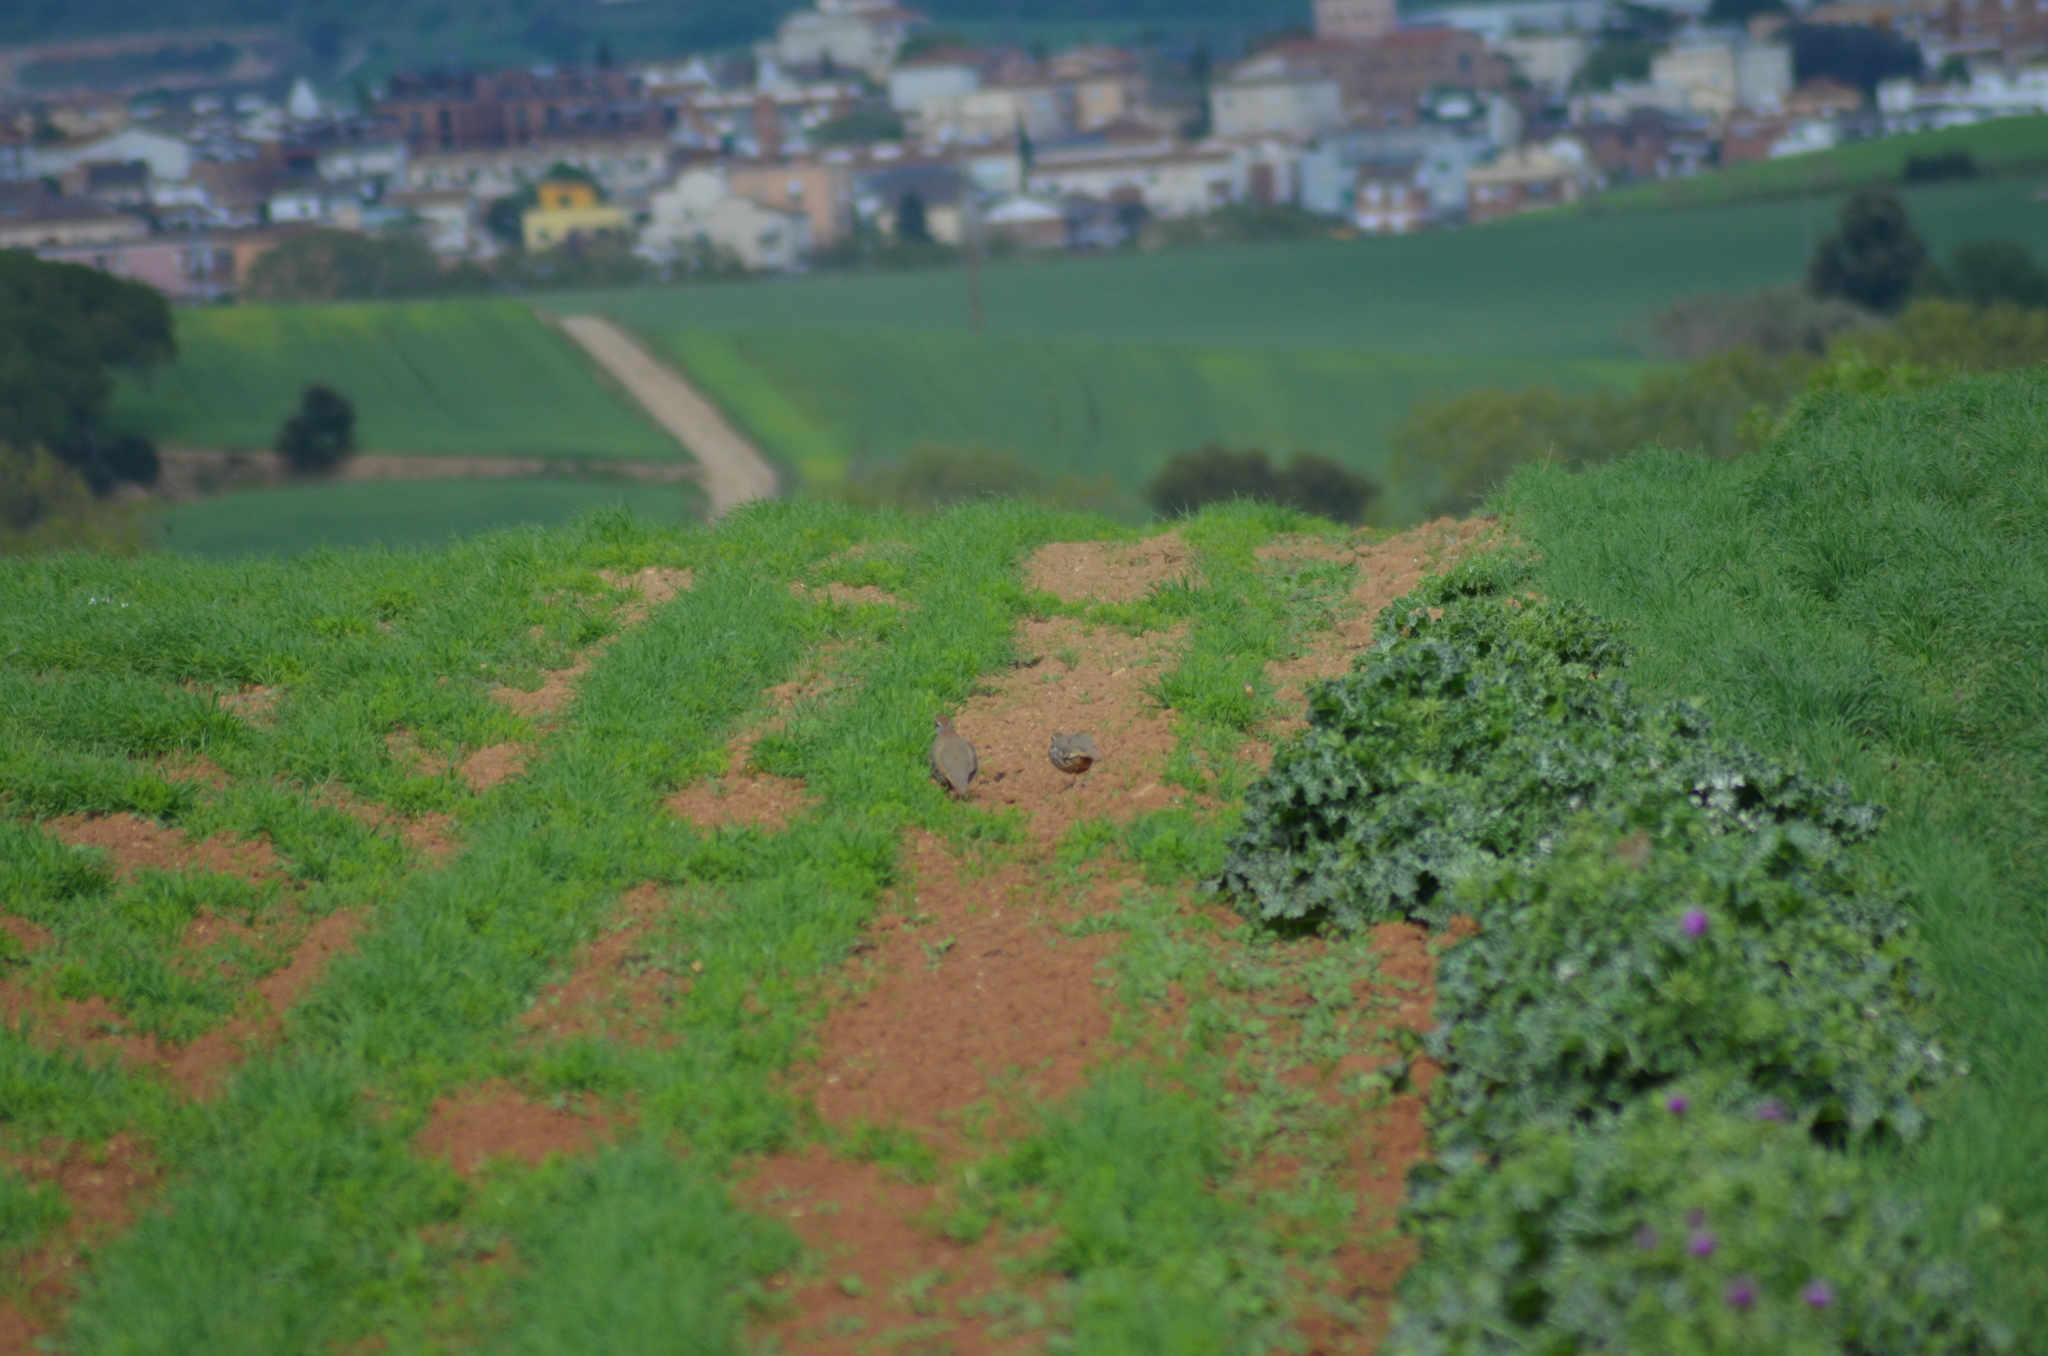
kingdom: Animalia
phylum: Chordata
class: Aves
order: Galliformes
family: Phasianidae
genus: Alectoris
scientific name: Alectoris rufa
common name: Red-legged partridge
